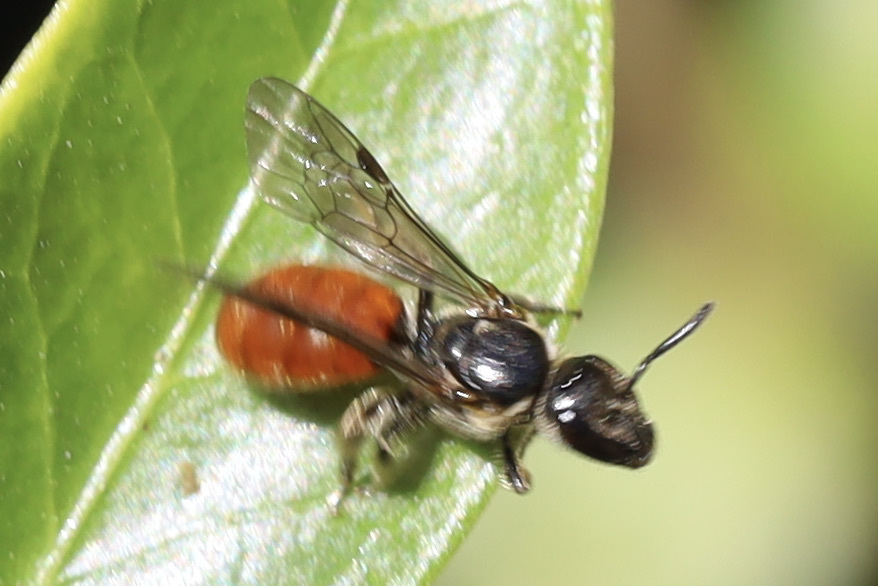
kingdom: Animalia
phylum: Arthropoda
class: Insecta
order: Hymenoptera
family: Halictidae
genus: Lasioglossum
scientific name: Lasioglossum ovaliceps
